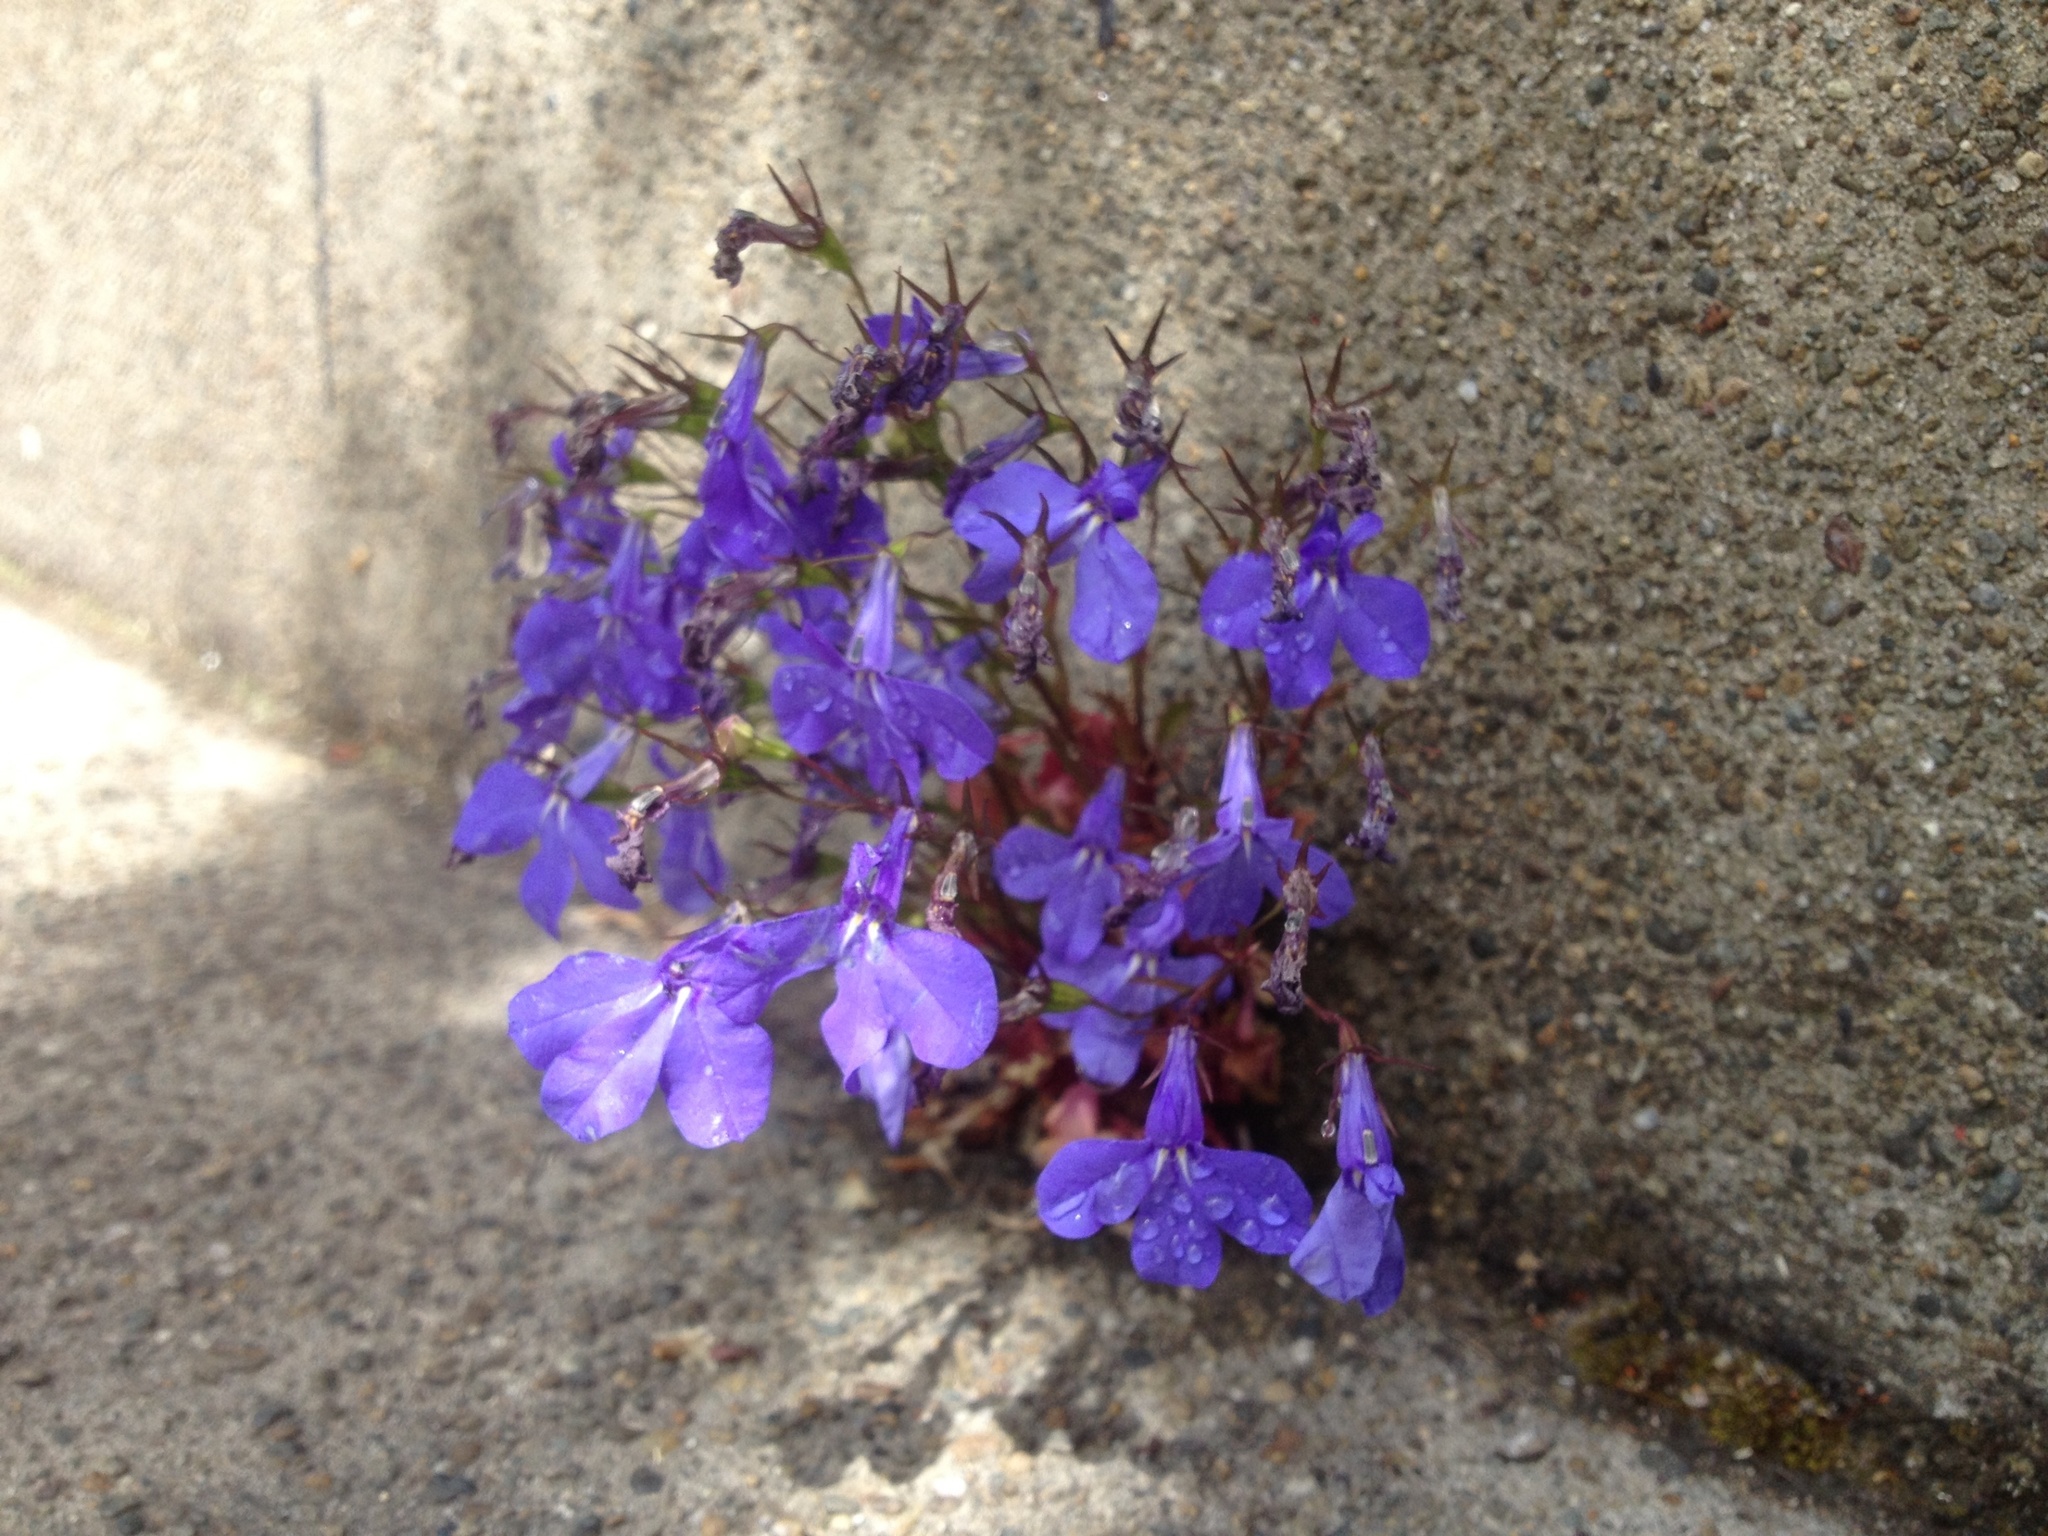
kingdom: Plantae
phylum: Tracheophyta
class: Magnoliopsida
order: Asterales
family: Campanulaceae
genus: Lobelia
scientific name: Lobelia erinus
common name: Edging lobelia
